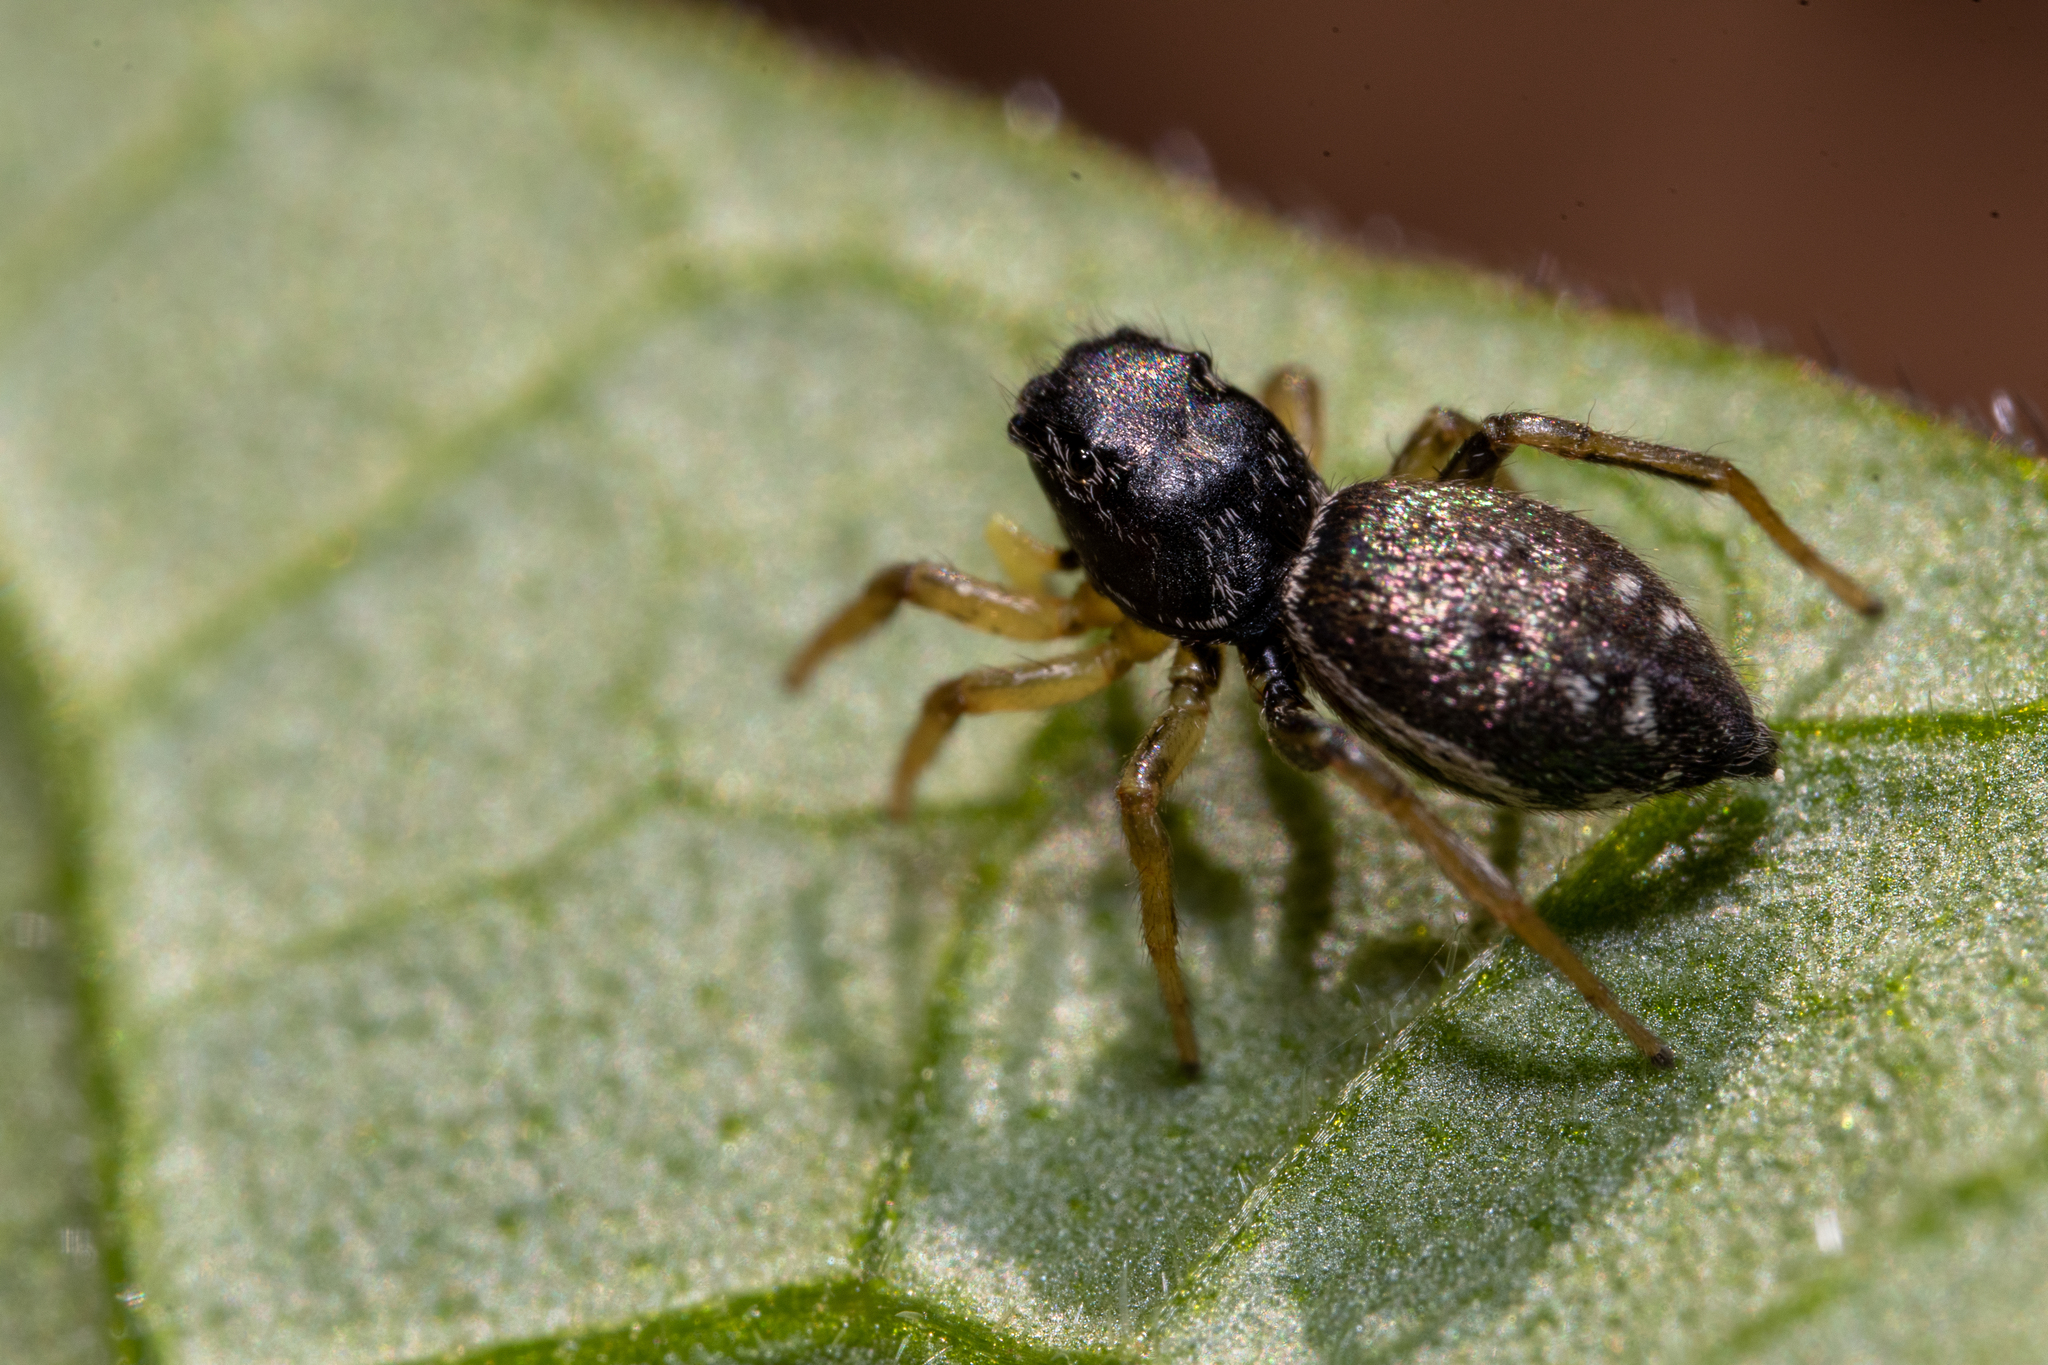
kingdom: Animalia
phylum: Arthropoda
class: Arachnida
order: Araneae
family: Salticidae
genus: Heliophanus
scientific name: Heliophanus flavipes
